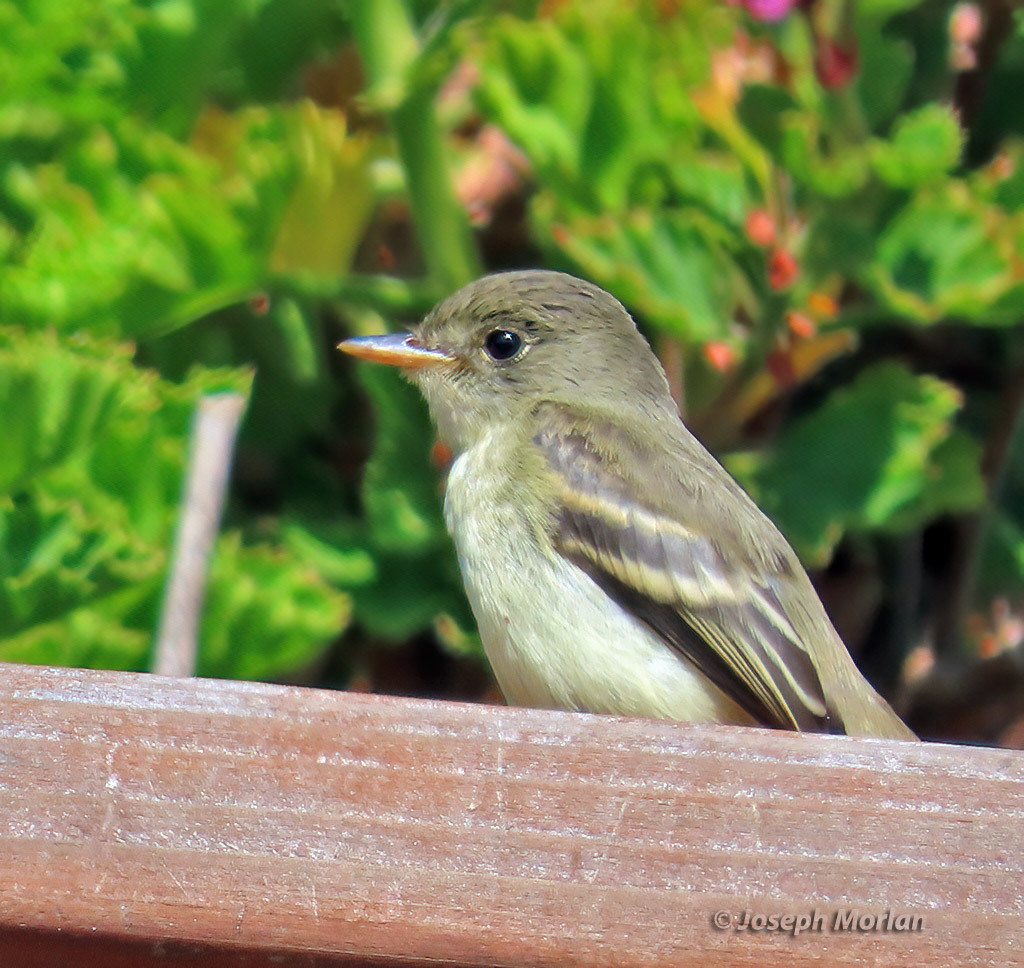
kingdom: Animalia
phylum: Chordata
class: Aves
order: Passeriformes
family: Tyrannidae
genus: Empidonax
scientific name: Empidonax traillii
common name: Willow flycatcher
